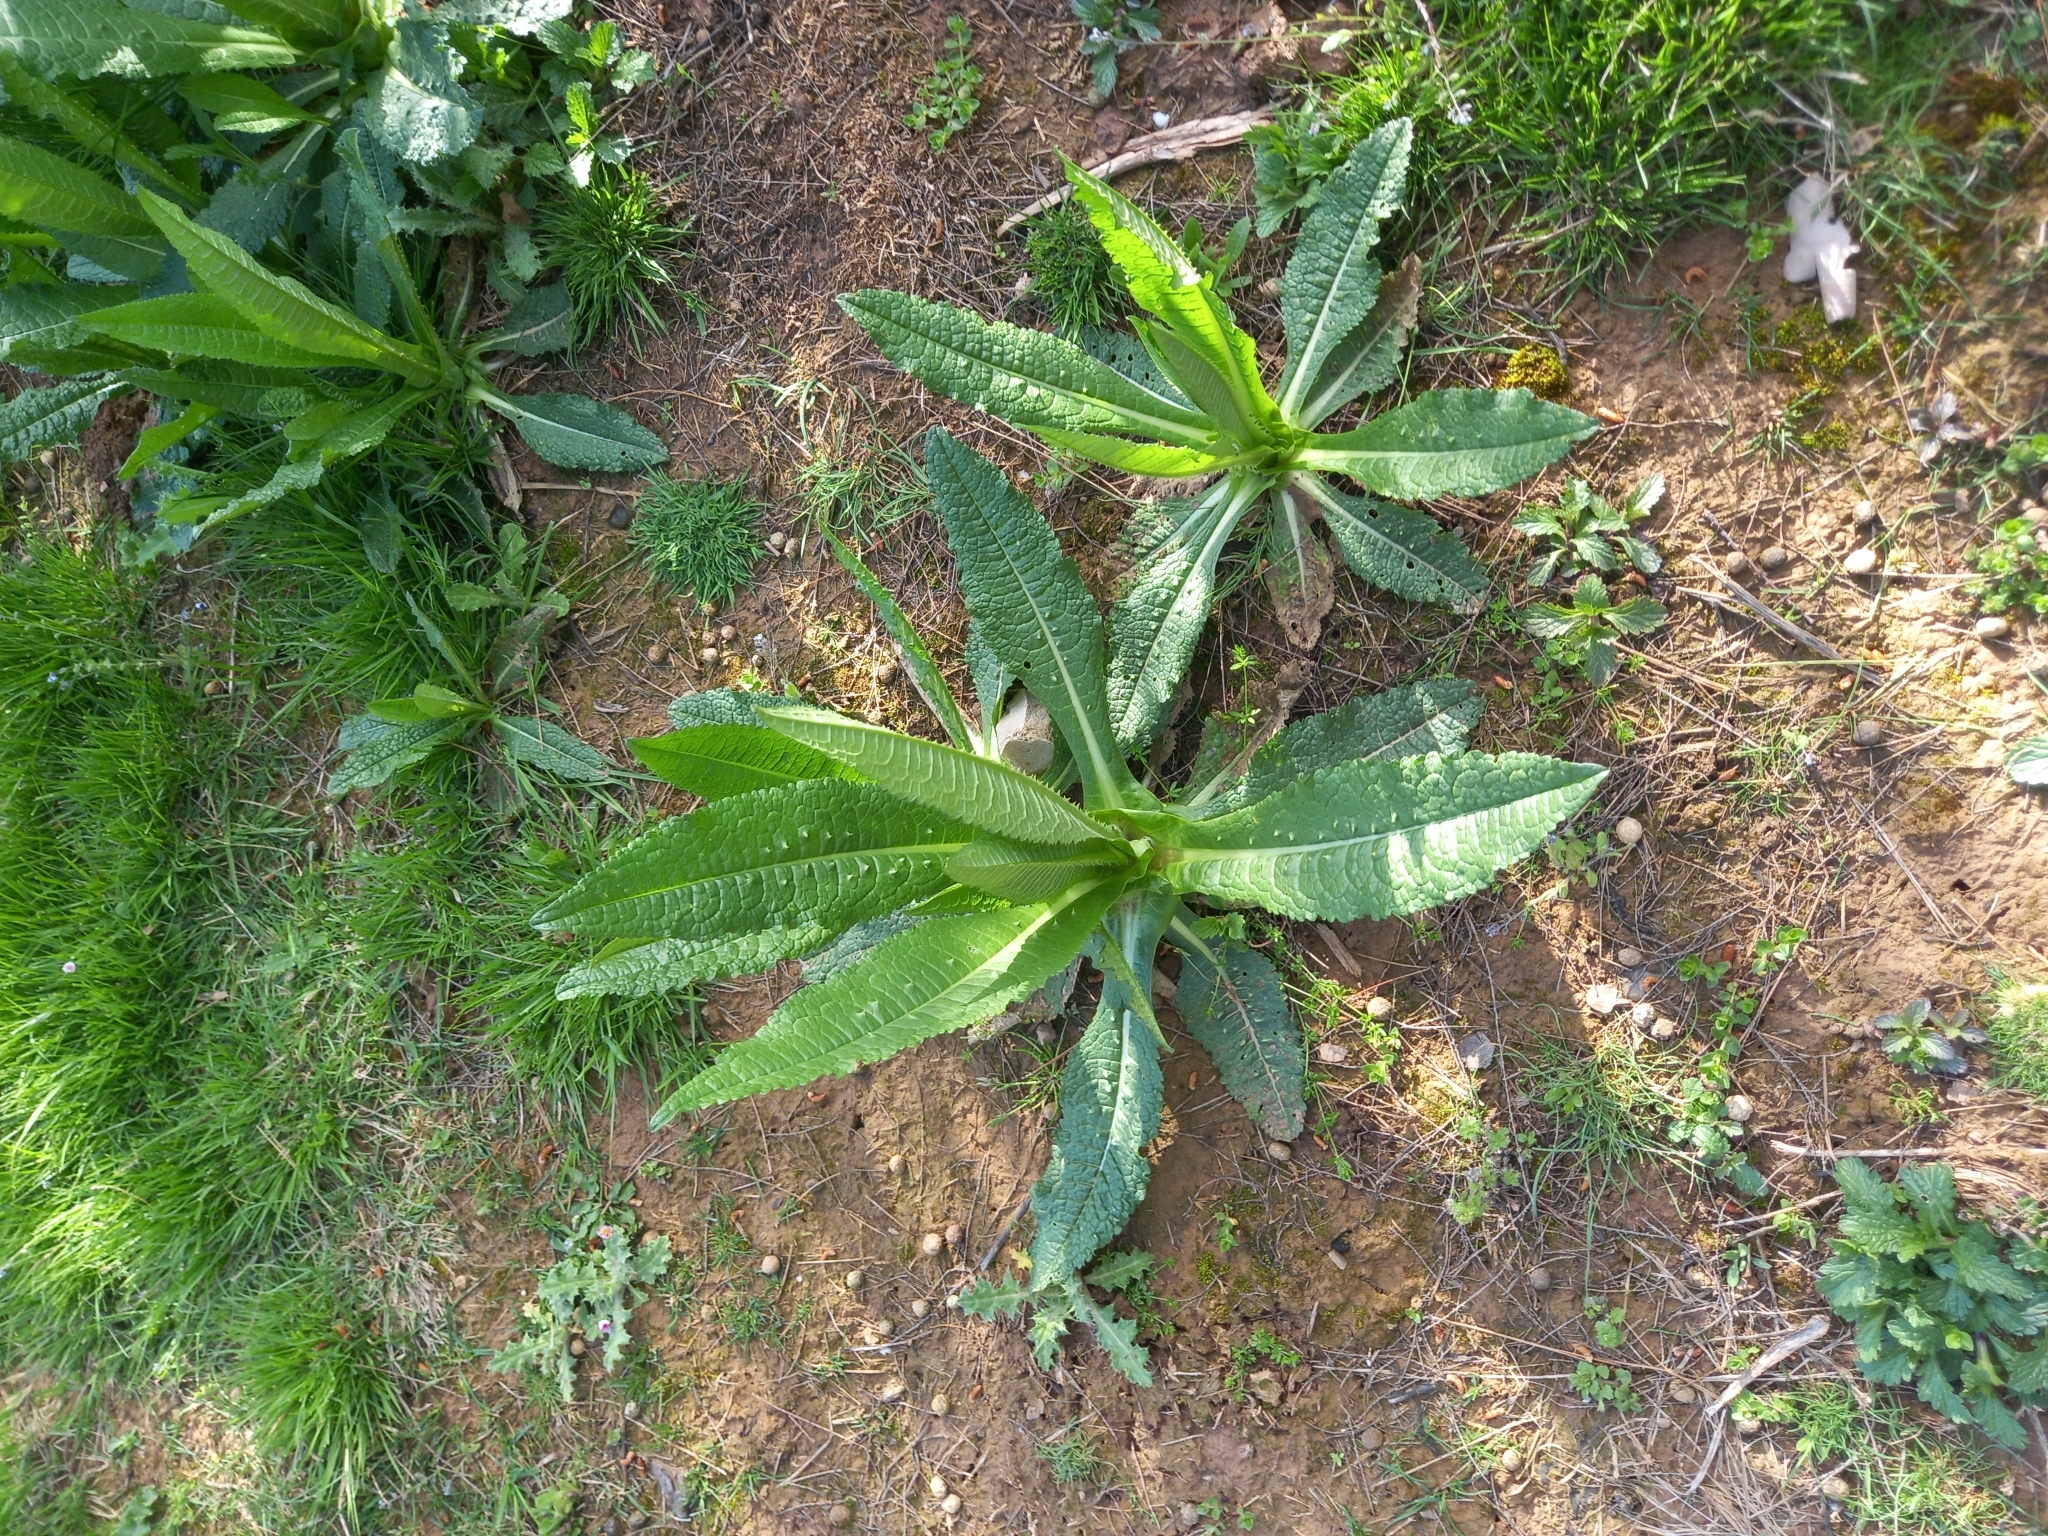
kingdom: Plantae
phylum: Tracheophyta
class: Magnoliopsida
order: Dipsacales
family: Caprifoliaceae
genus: Dipsacus
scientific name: Dipsacus fullonum
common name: Teasel
